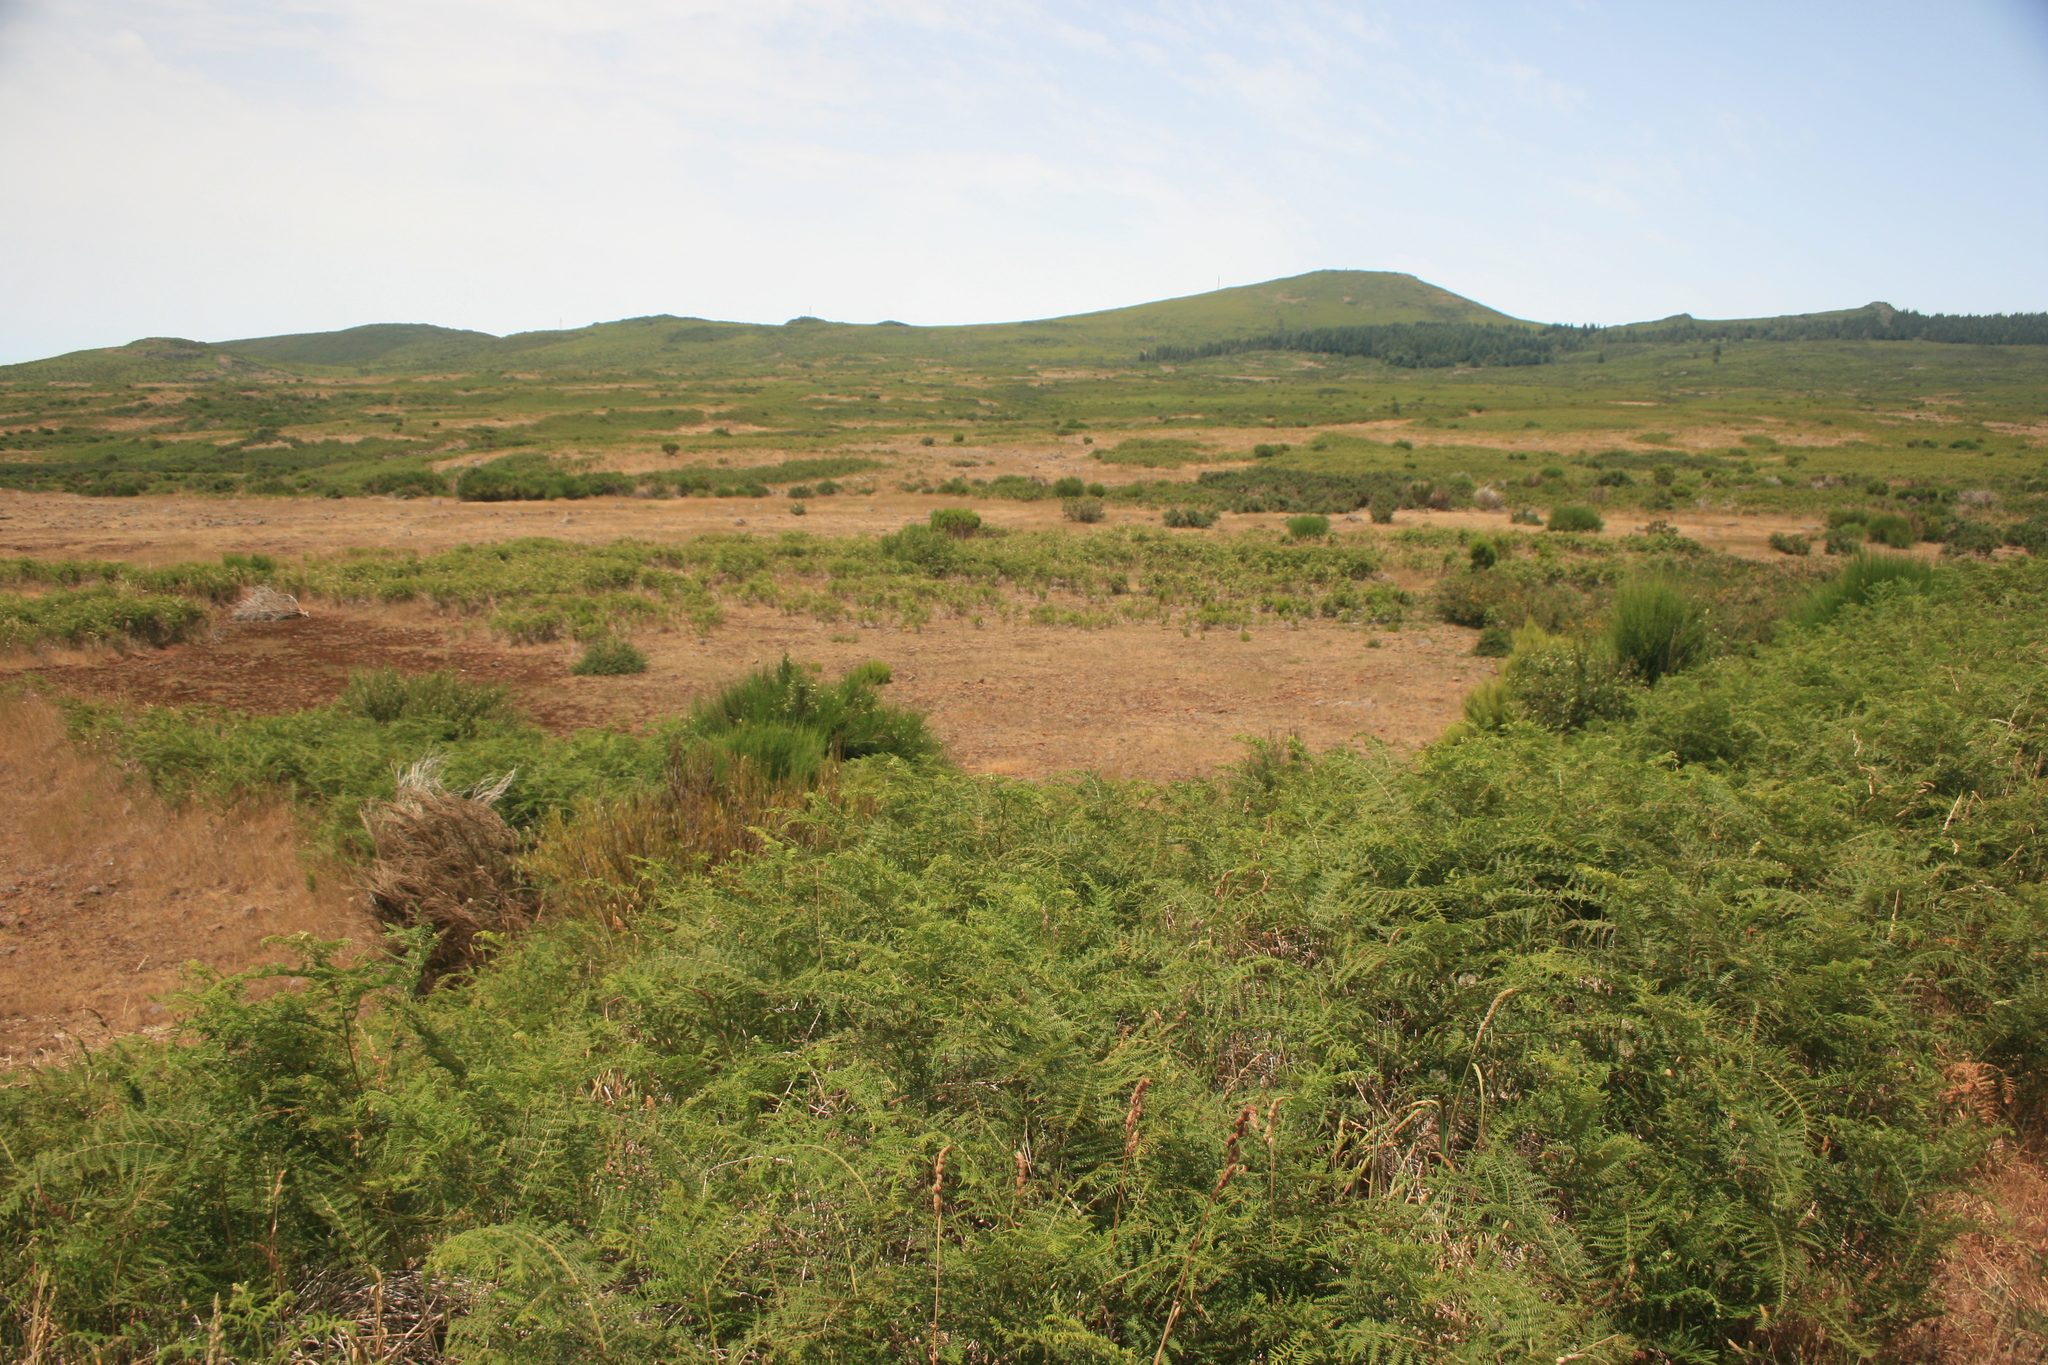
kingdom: Plantae
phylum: Tracheophyta
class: Polypodiopsida
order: Polypodiales
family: Dennstaedtiaceae
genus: Pteridium
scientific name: Pteridium aquilinum
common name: Bracken
